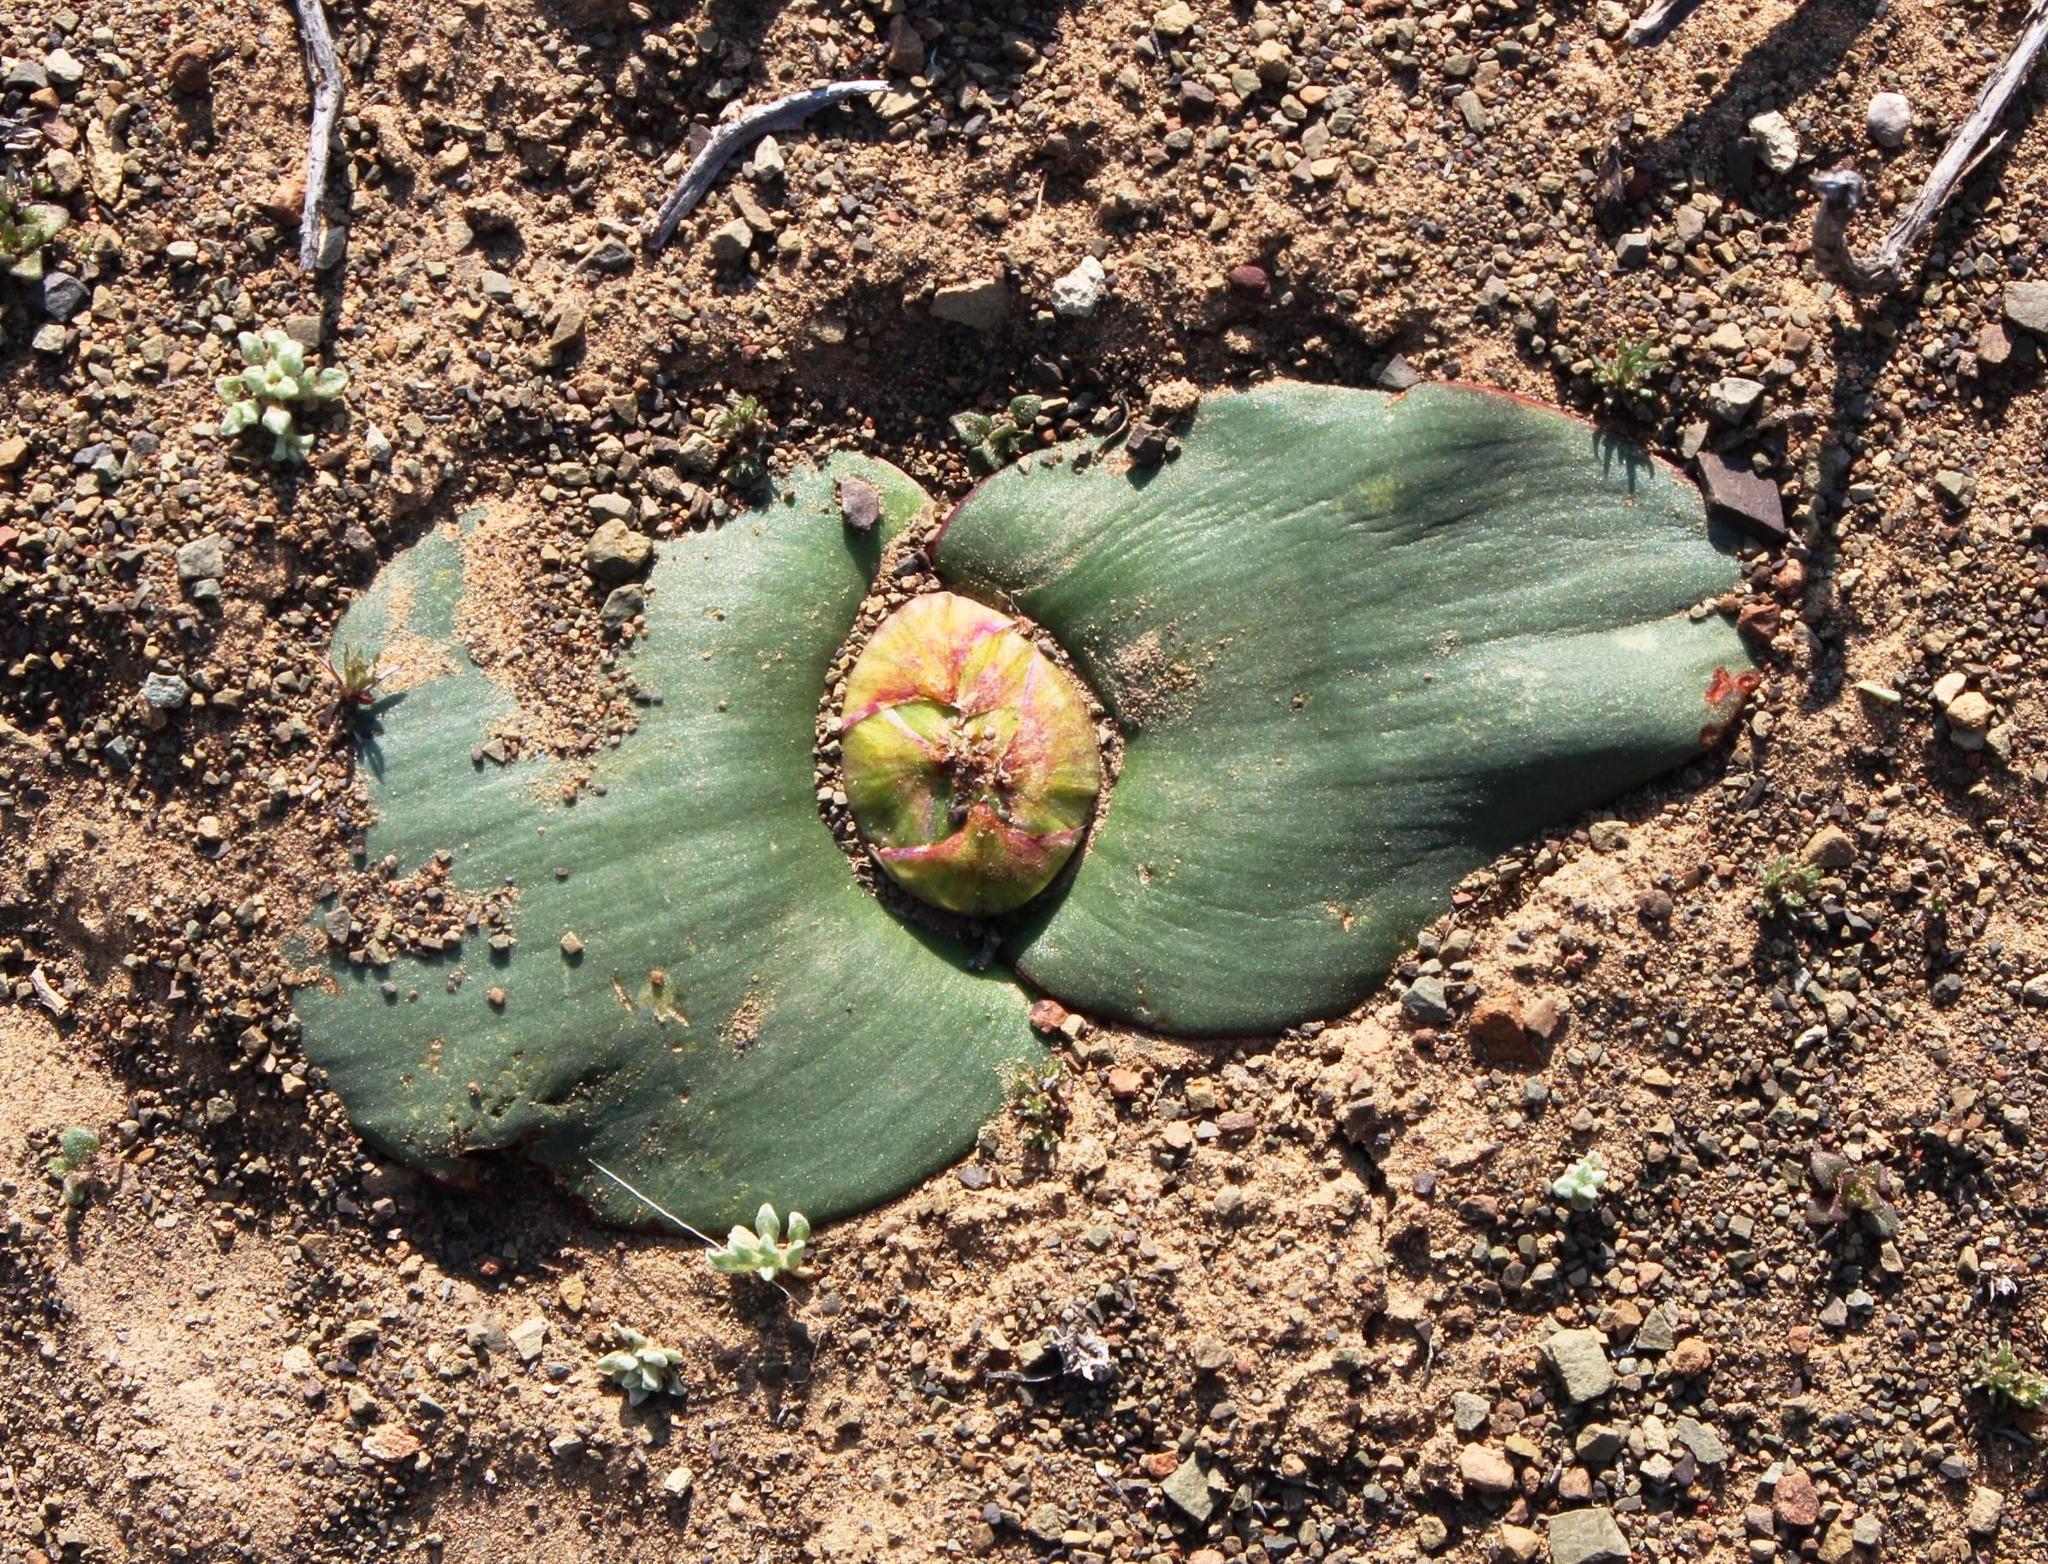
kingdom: Plantae
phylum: Tracheophyta
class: Liliopsida
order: Asparagales
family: Asparagaceae
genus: Massonia
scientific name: Massonia depressa
